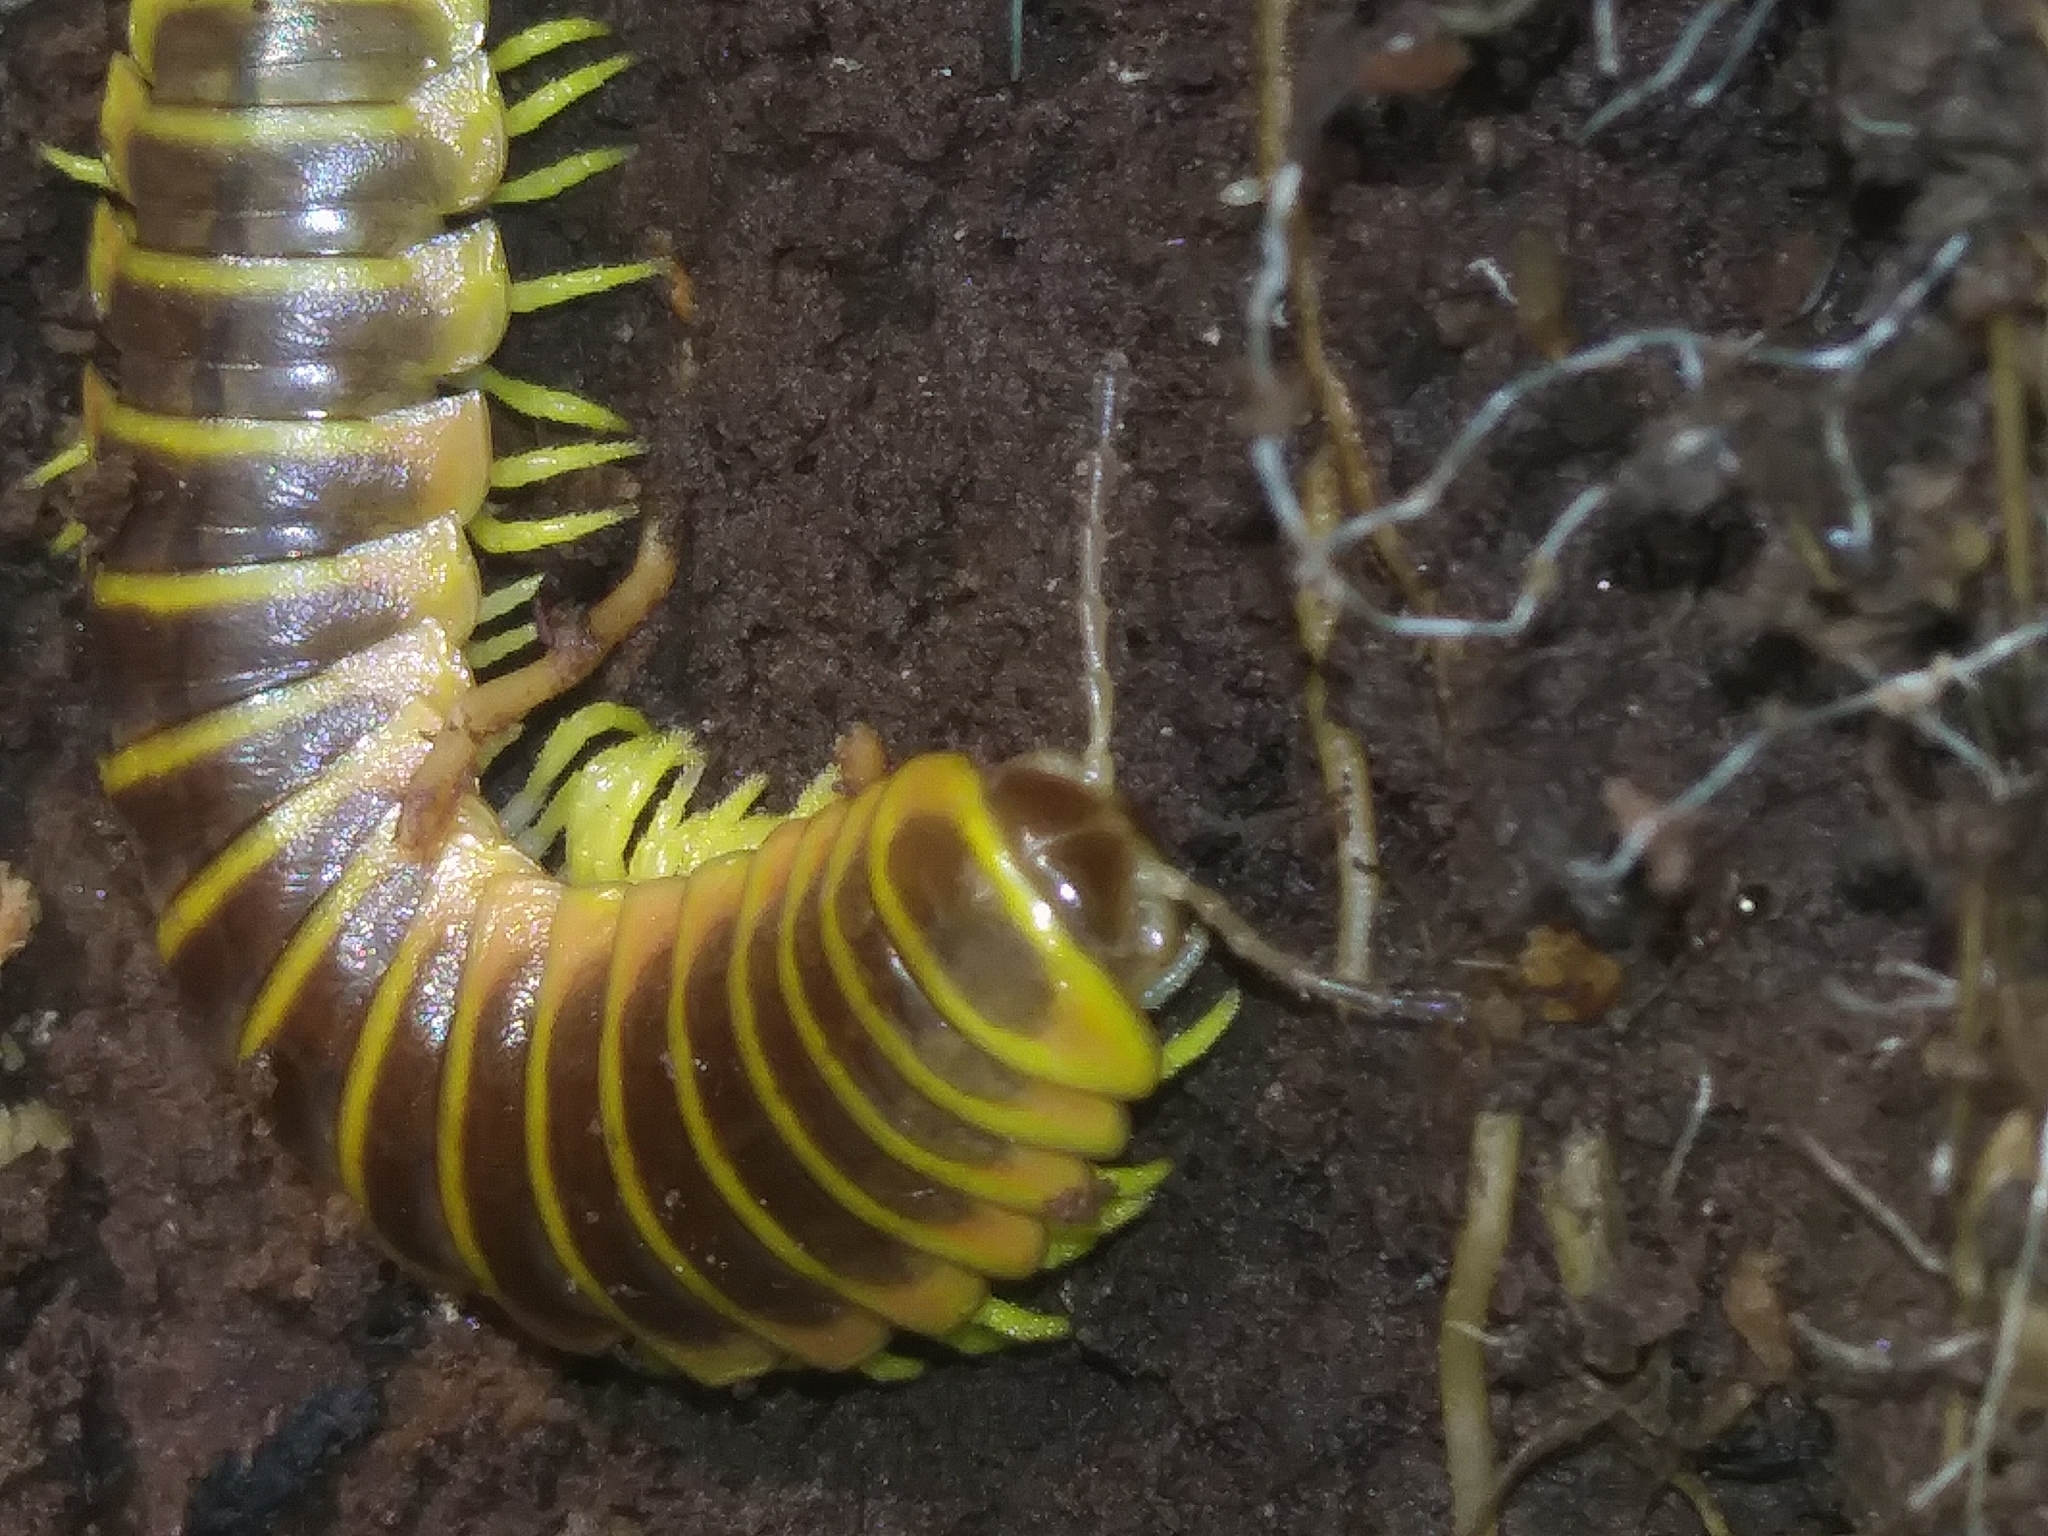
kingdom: Animalia
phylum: Arthropoda
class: Diplopoda
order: Polydesmida
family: Xystodesmidae
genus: Apheloria
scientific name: Apheloria virginiensis
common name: Black-and-gold flat millipede
